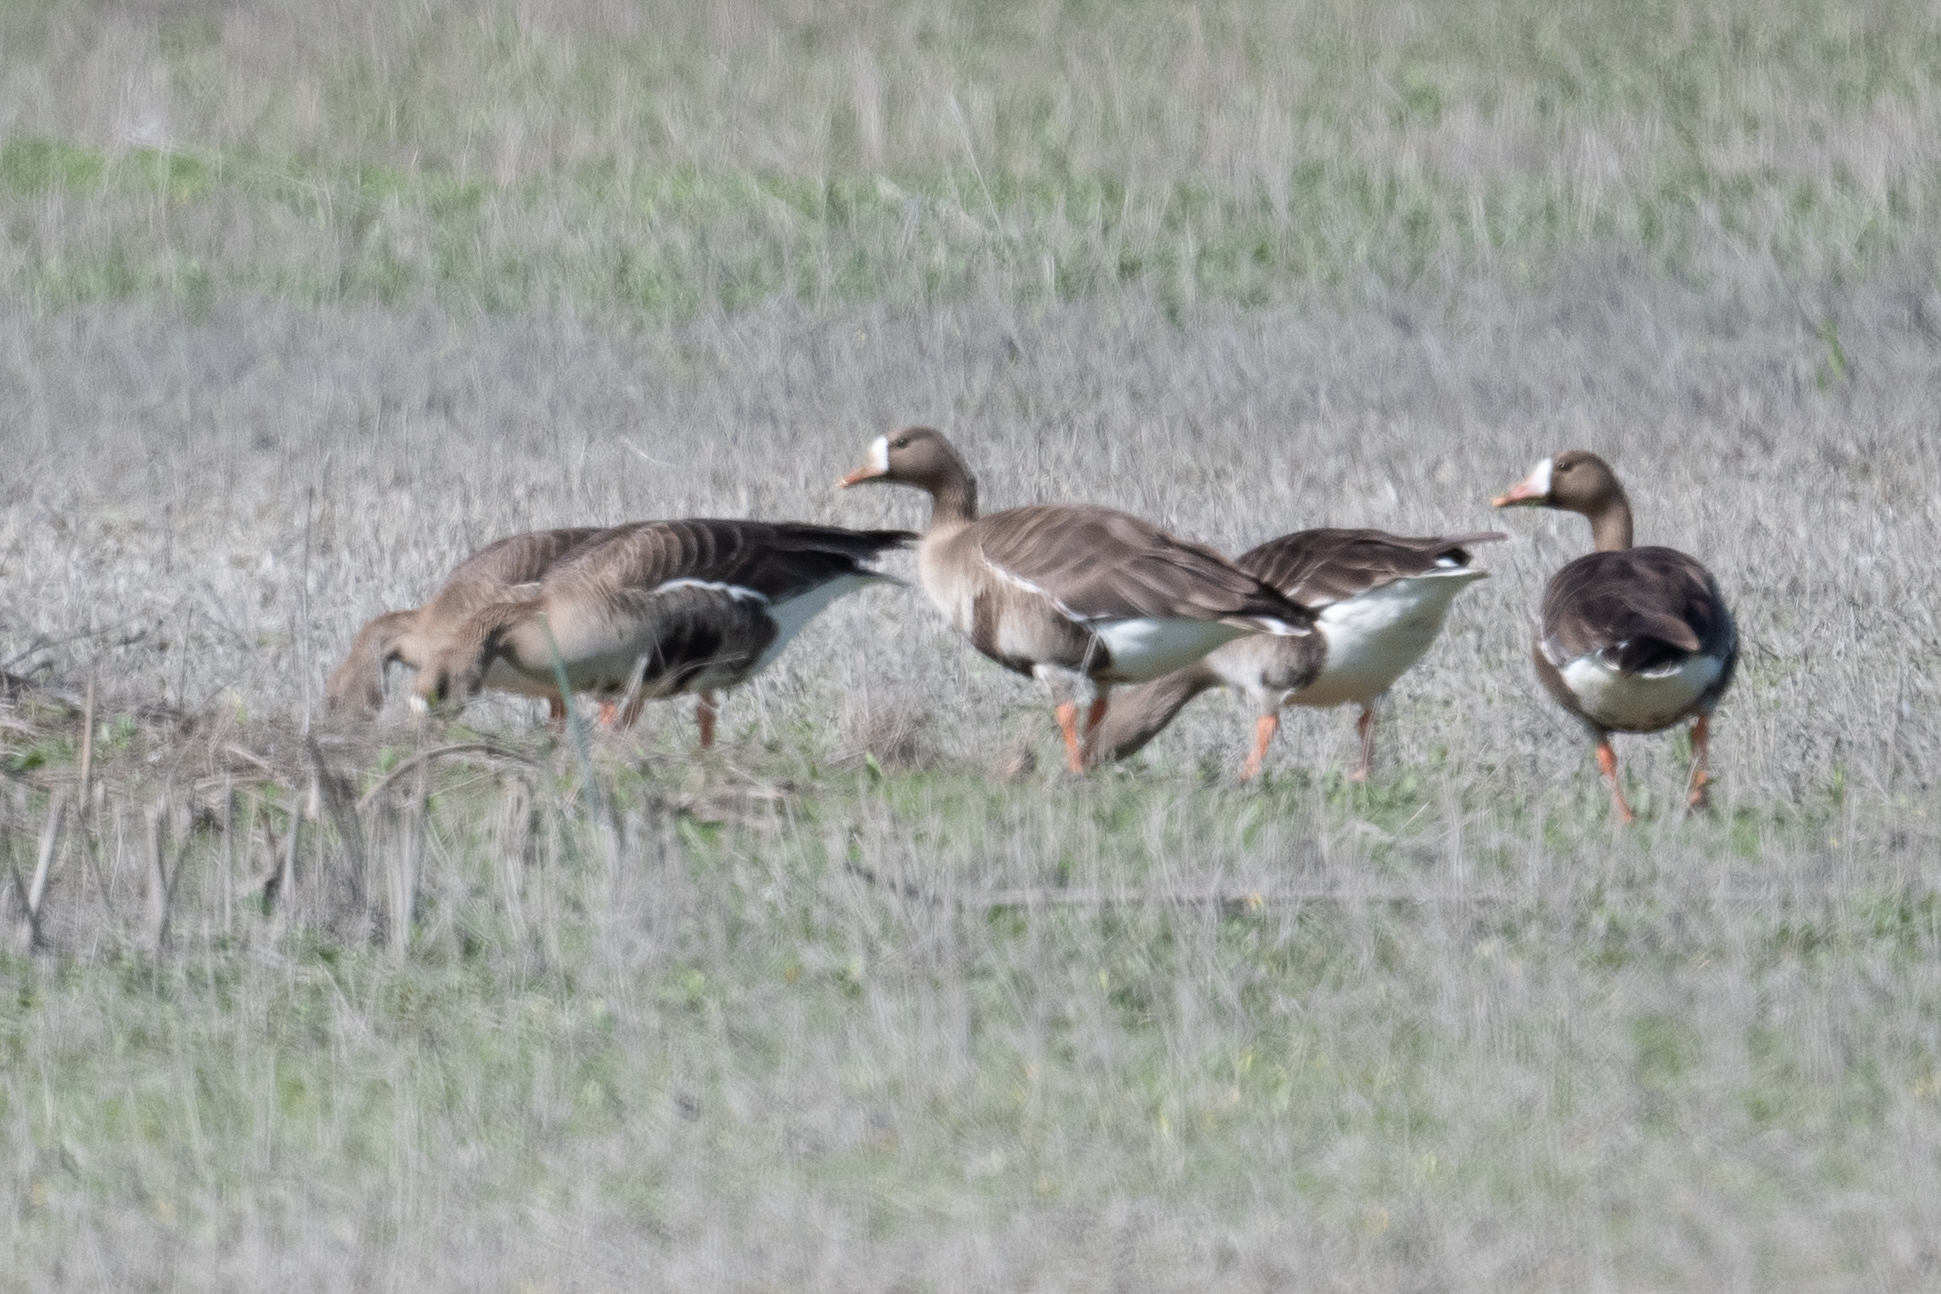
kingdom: Animalia
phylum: Chordata
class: Aves
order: Anseriformes
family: Anatidae
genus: Anser
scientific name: Anser albifrons
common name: Greater white-fronted goose
